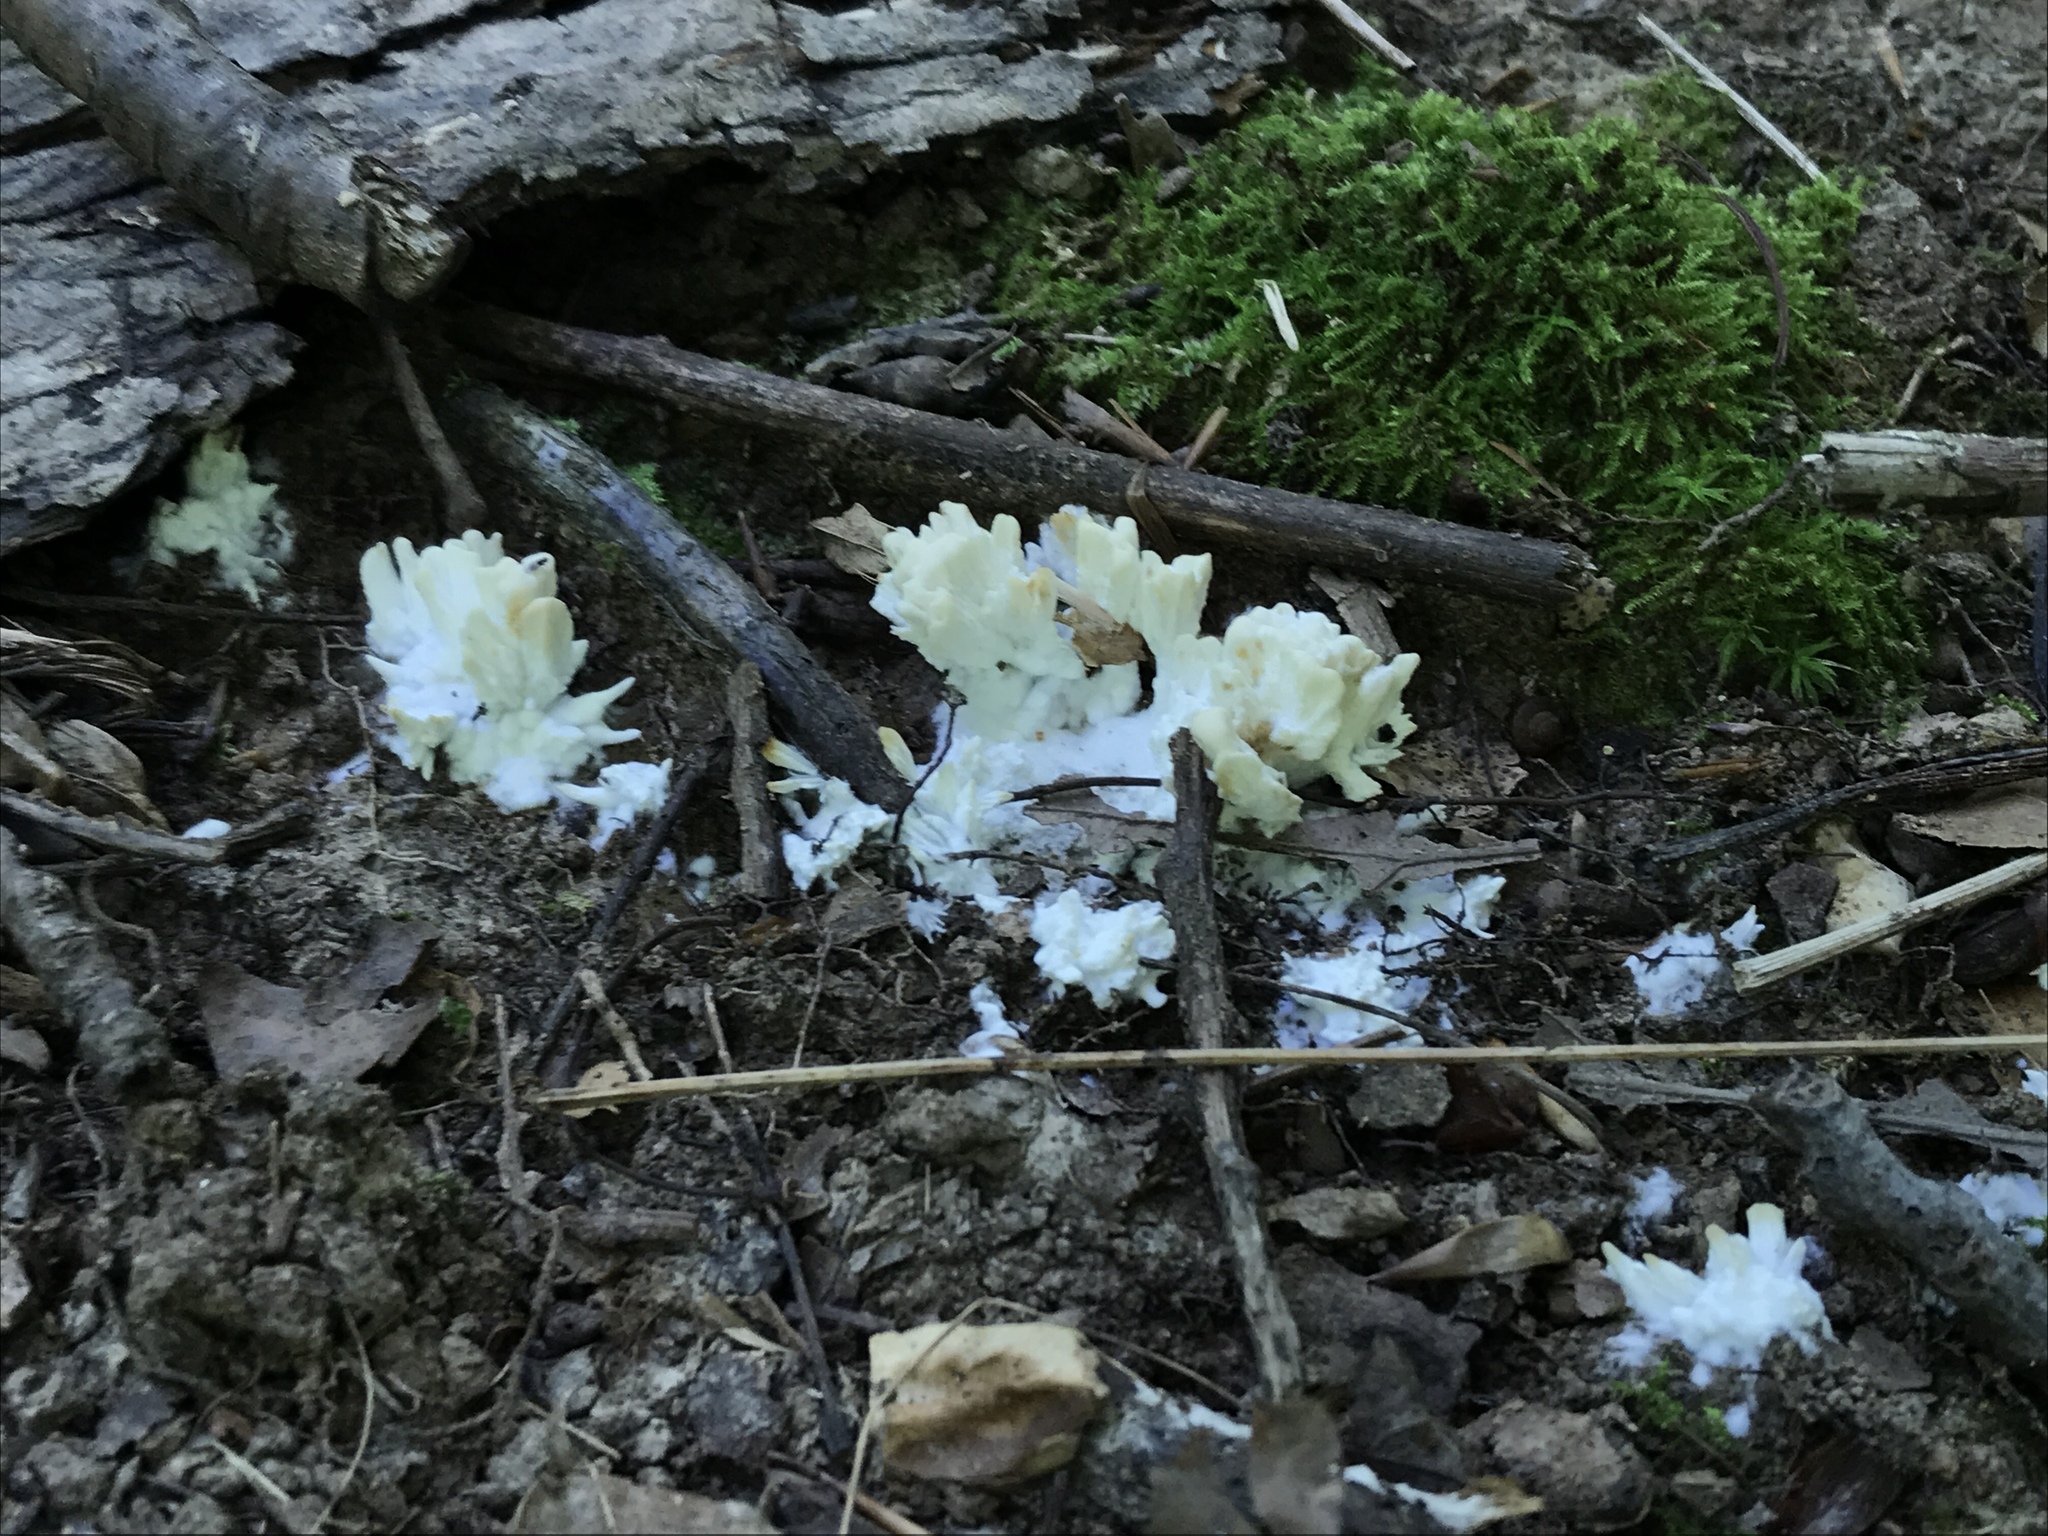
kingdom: Fungi
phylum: Basidiomycota
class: Agaricomycetes
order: Sebacinales
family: Sebacinaceae
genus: Sebacina
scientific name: Sebacina schweinitzii
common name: Jellied false coral fungus
